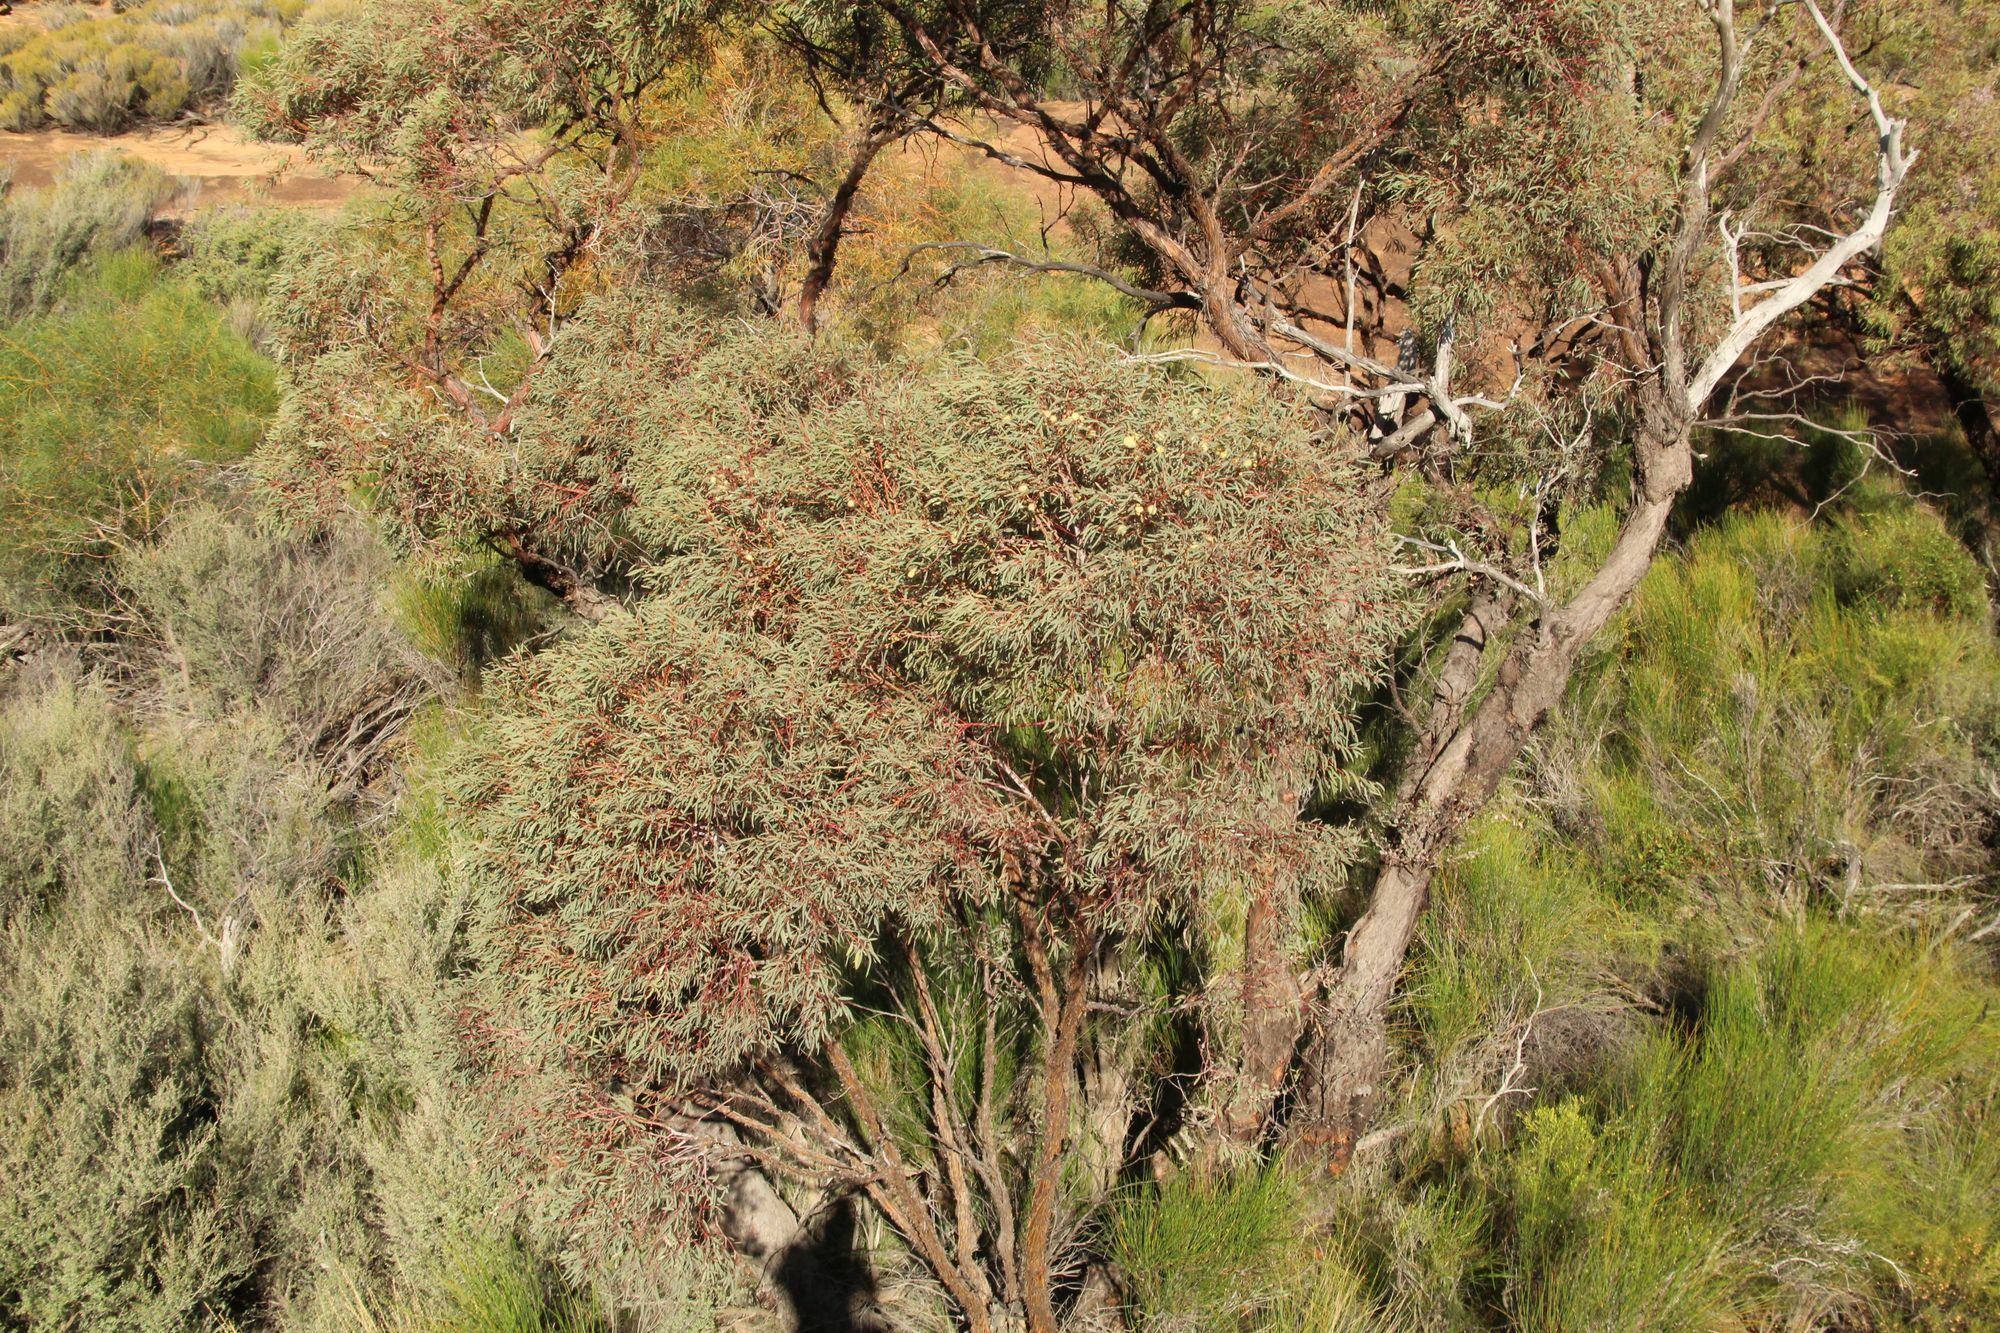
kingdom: Plantae
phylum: Tracheophyta
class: Magnoliopsida
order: Myrtales
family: Myrtaceae
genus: Eucalyptus
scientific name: Eucalyptus crucis
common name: Southern cross silver mallee
